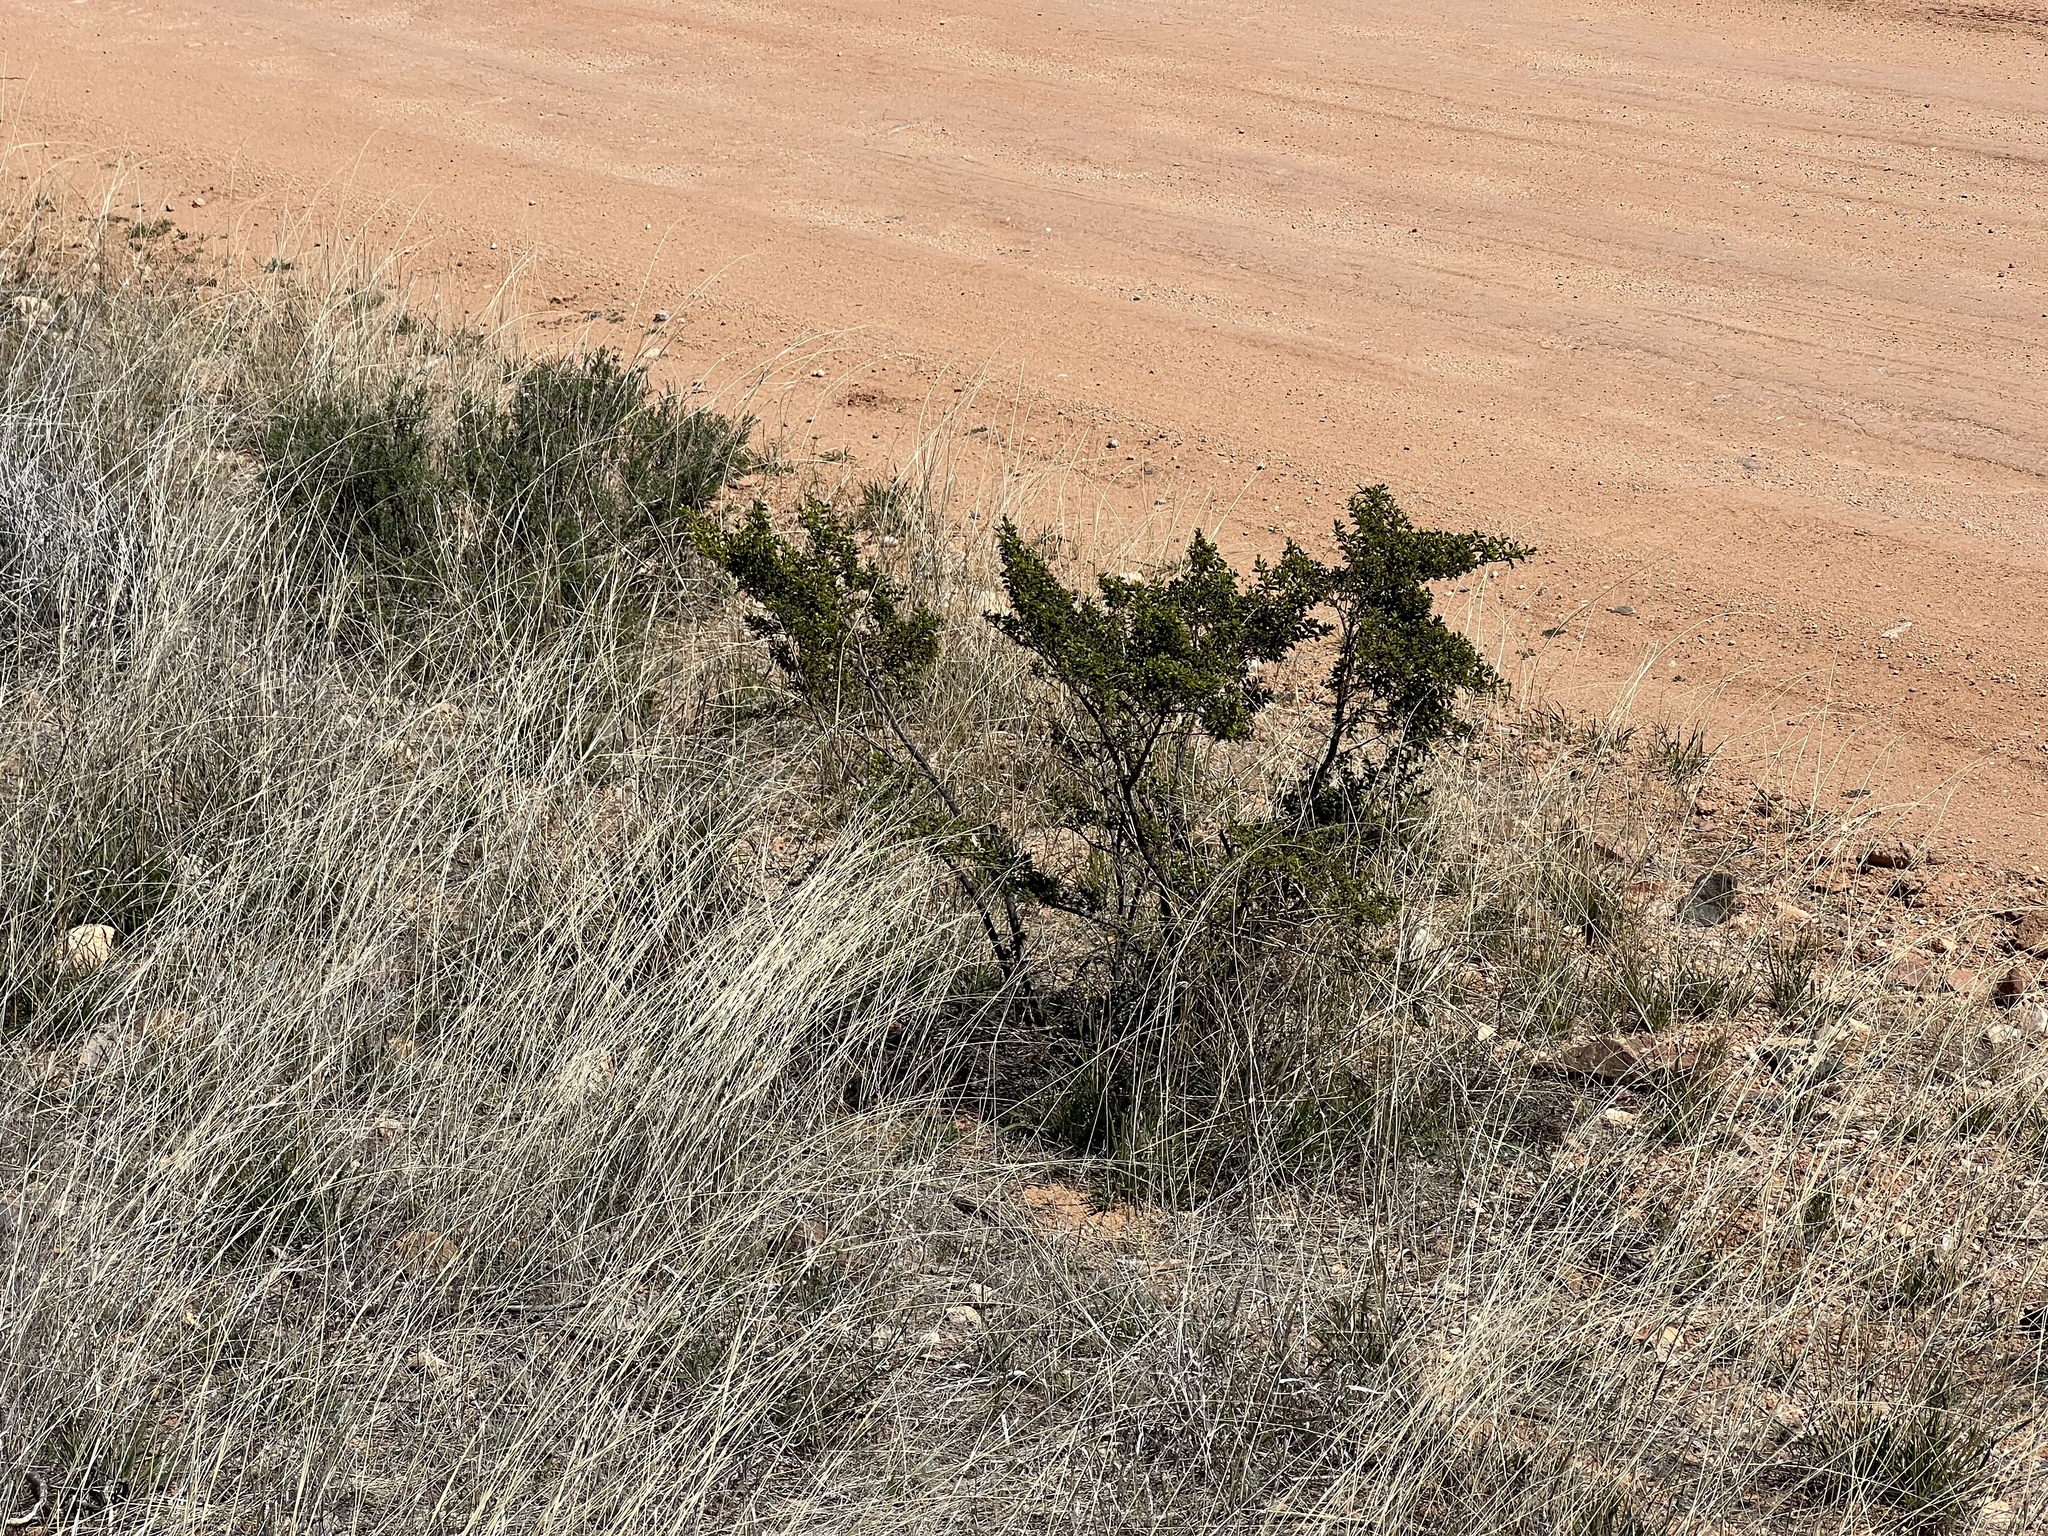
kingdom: Plantae
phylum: Tracheophyta
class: Magnoliopsida
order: Zygophyllales
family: Zygophyllaceae
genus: Larrea
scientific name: Larrea tridentata
